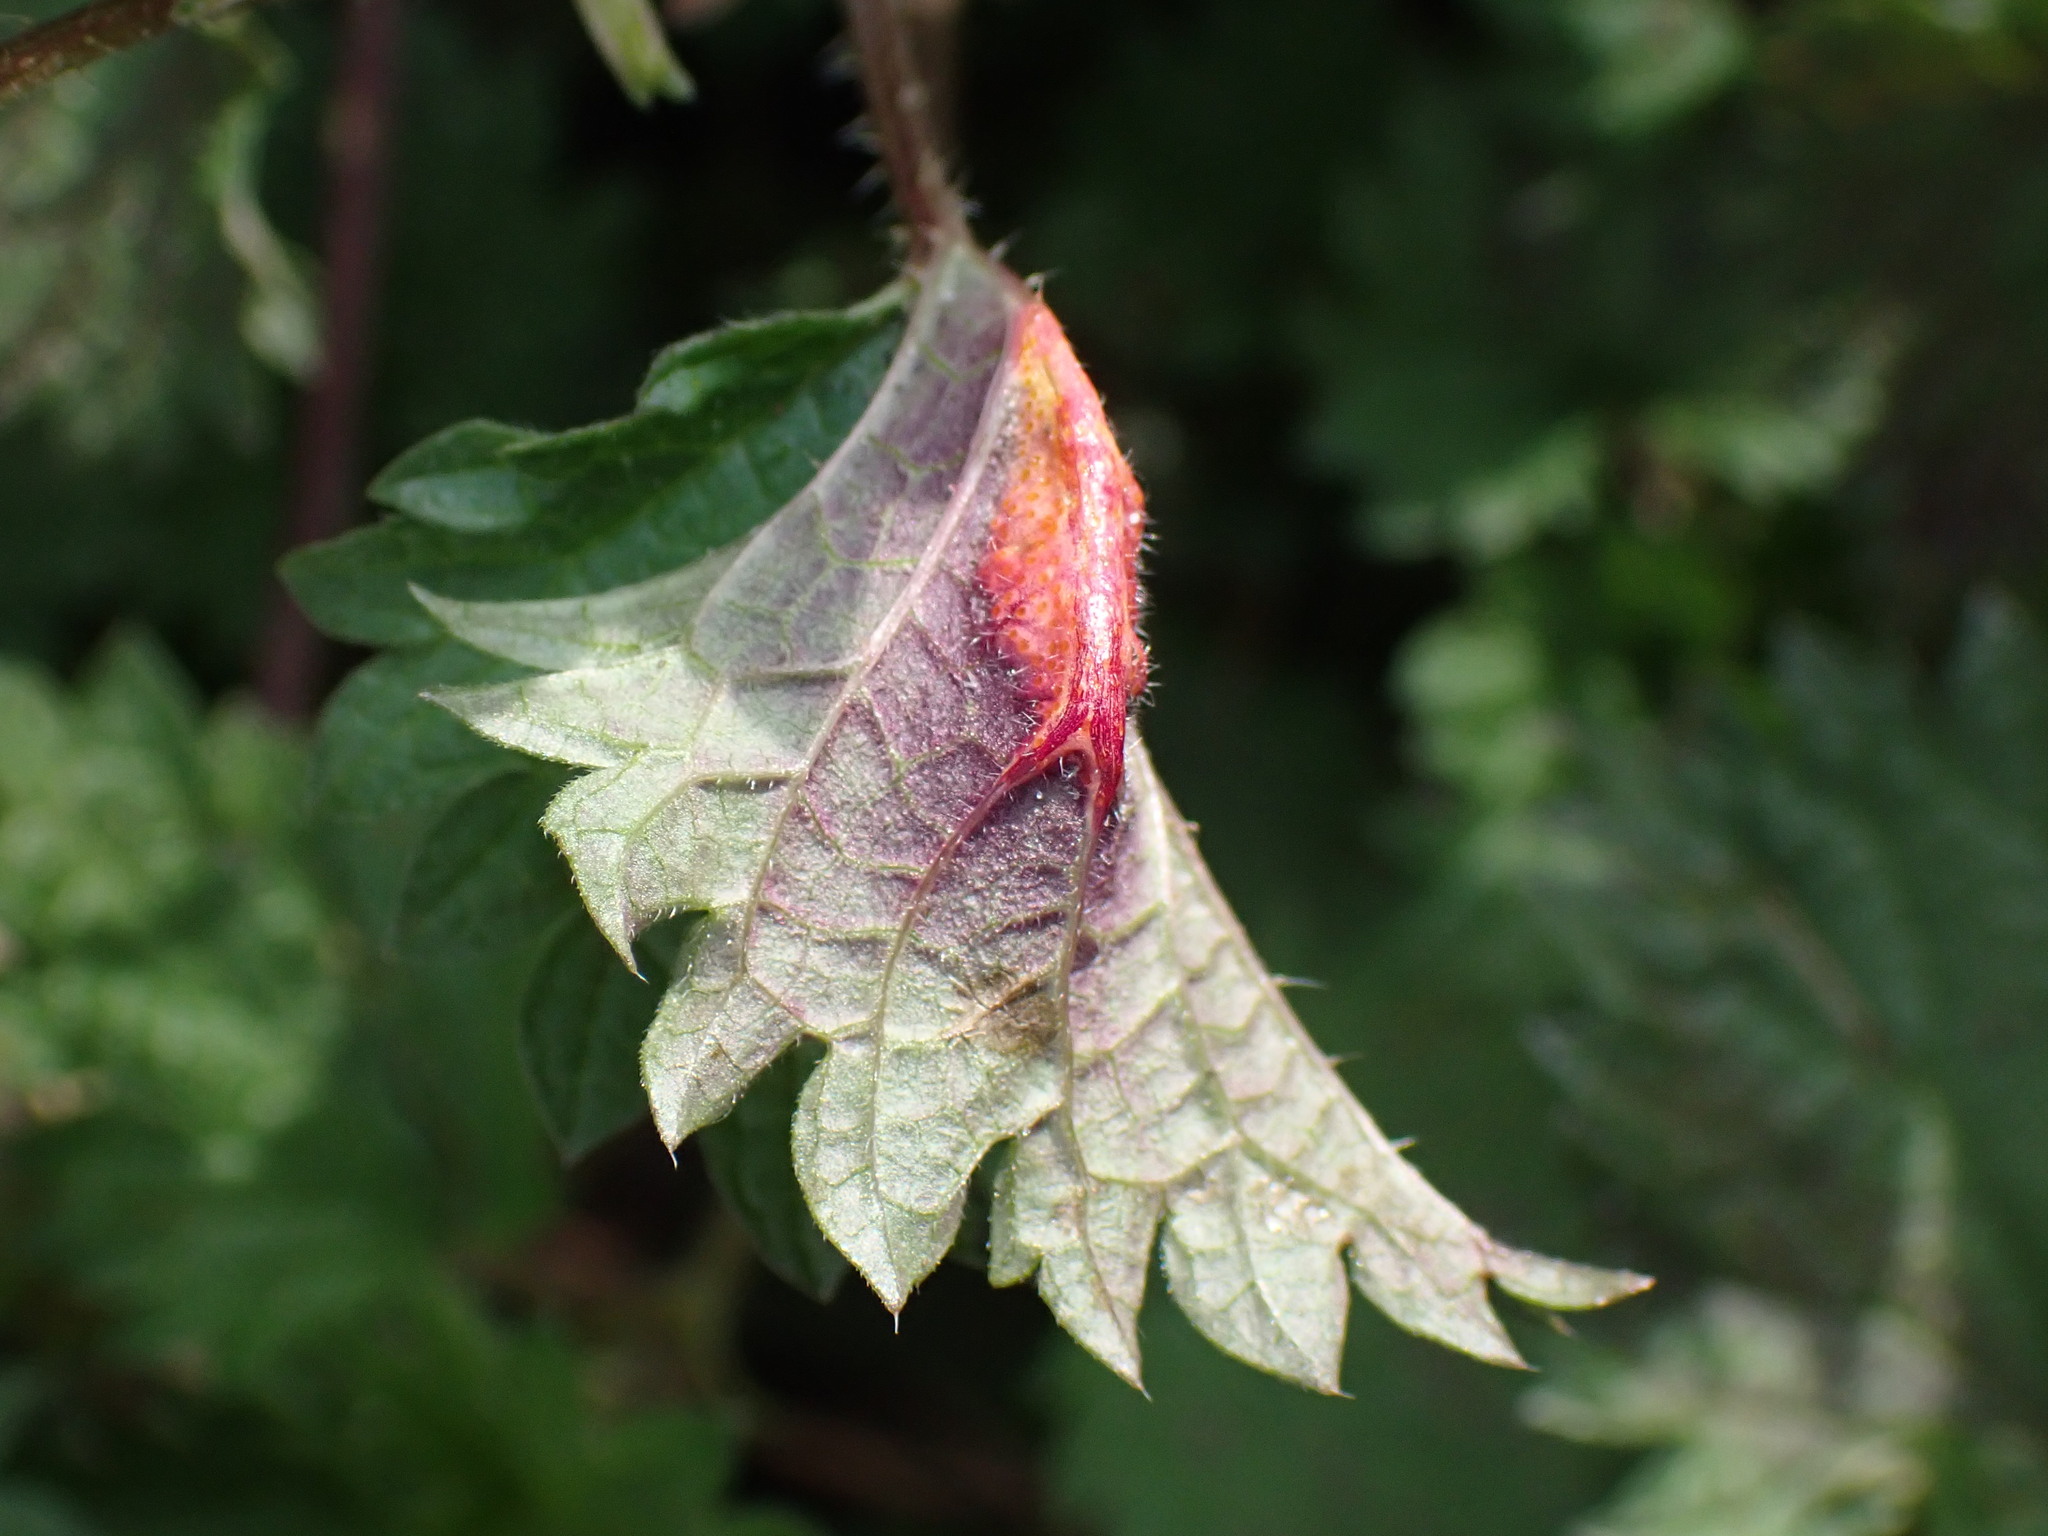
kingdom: Fungi
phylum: Basidiomycota
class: Pucciniomycetes
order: Pucciniales
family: Pucciniaceae
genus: Puccinia
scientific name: Puccinia urticata
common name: Nettle clustercup rust fungus
